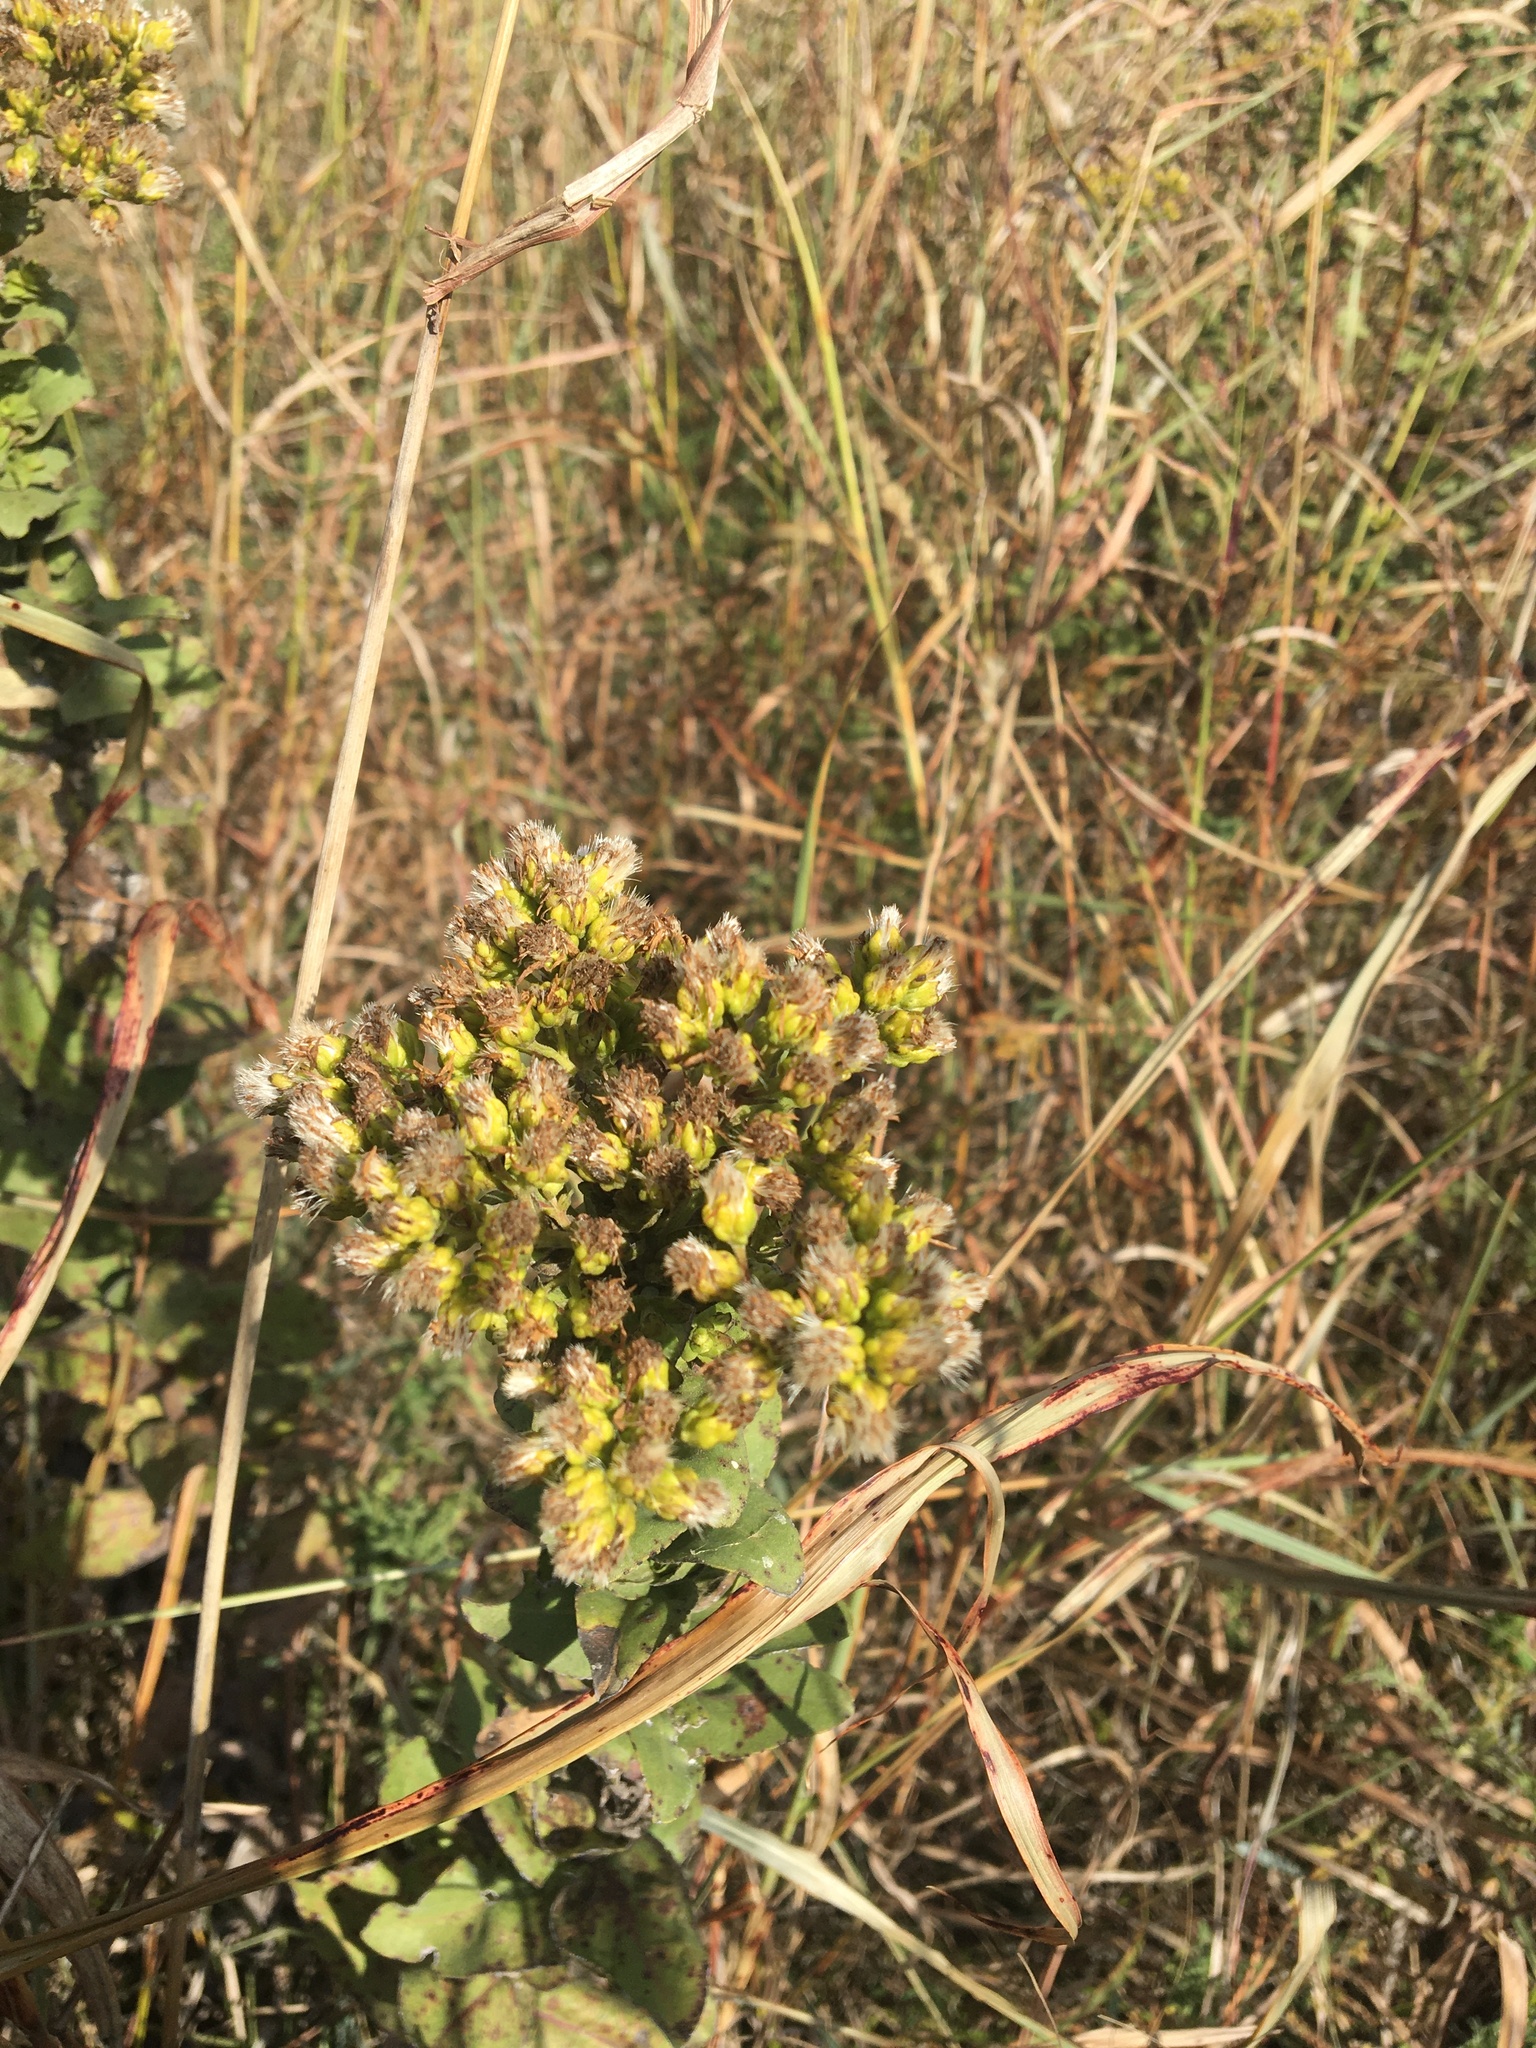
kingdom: Plantae
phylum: Tracheophyta
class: Magnoliopsida
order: Asterales
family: Asteraceae
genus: Solidago
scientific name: Solidago rigida
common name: Rigid goldenrod
